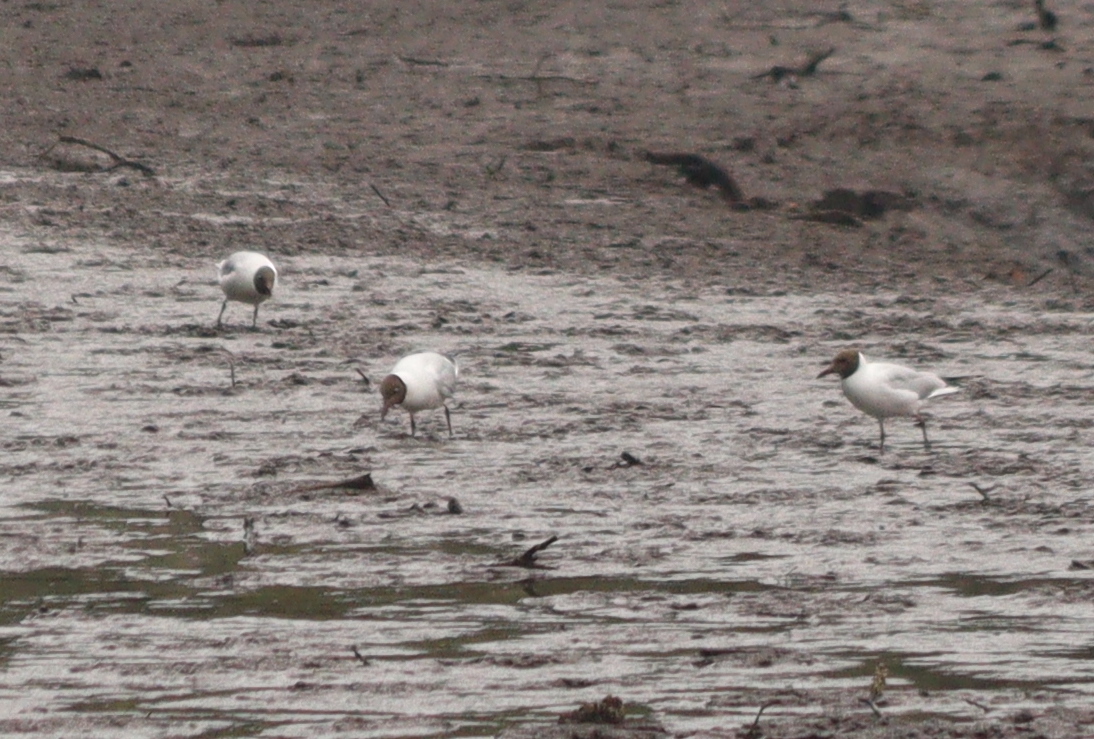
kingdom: Animalia
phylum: Chordata
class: Aves
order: Charadriiformes
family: Laridae
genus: Chroicocephalus
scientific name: Chroicocephalus ridibundus
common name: Black-headed gull
